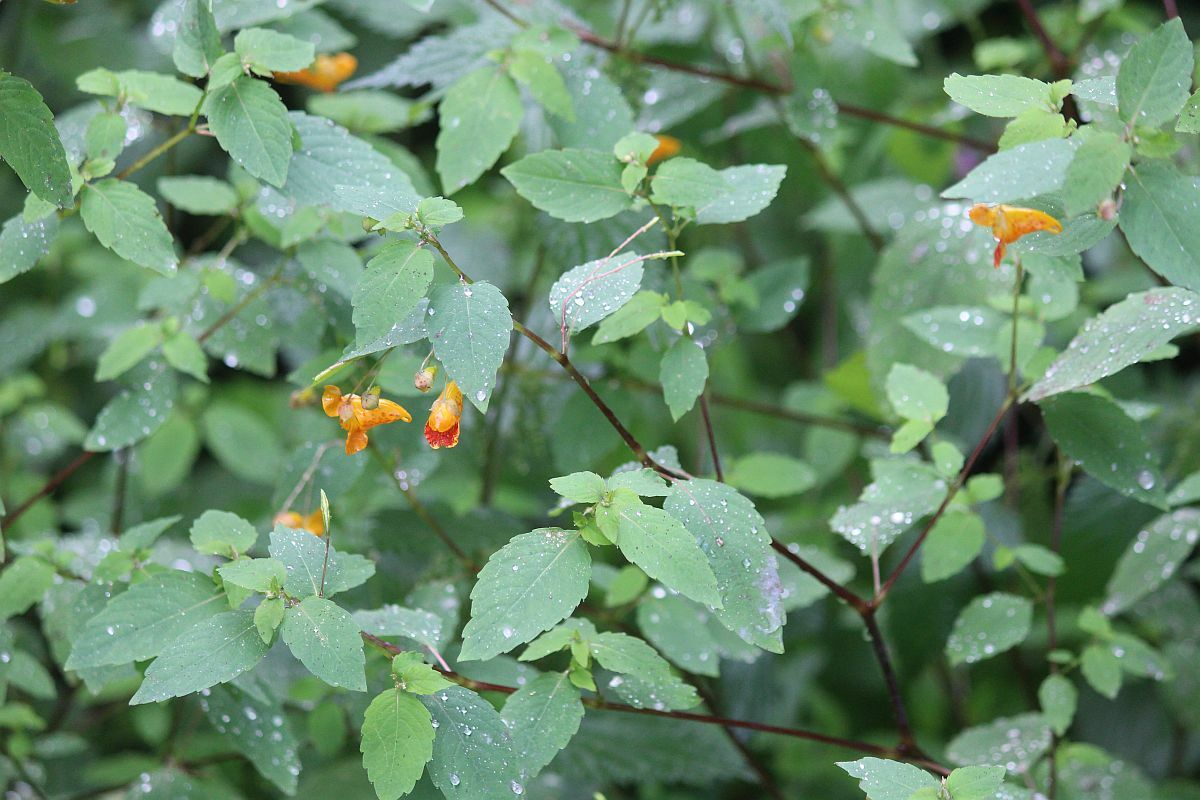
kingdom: Plantae
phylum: Tracheophyta
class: Magnoliopsida
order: Ericales
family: Balsaminaceae
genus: Impatiens
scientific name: Impatiens capensis
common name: Orange balsam
